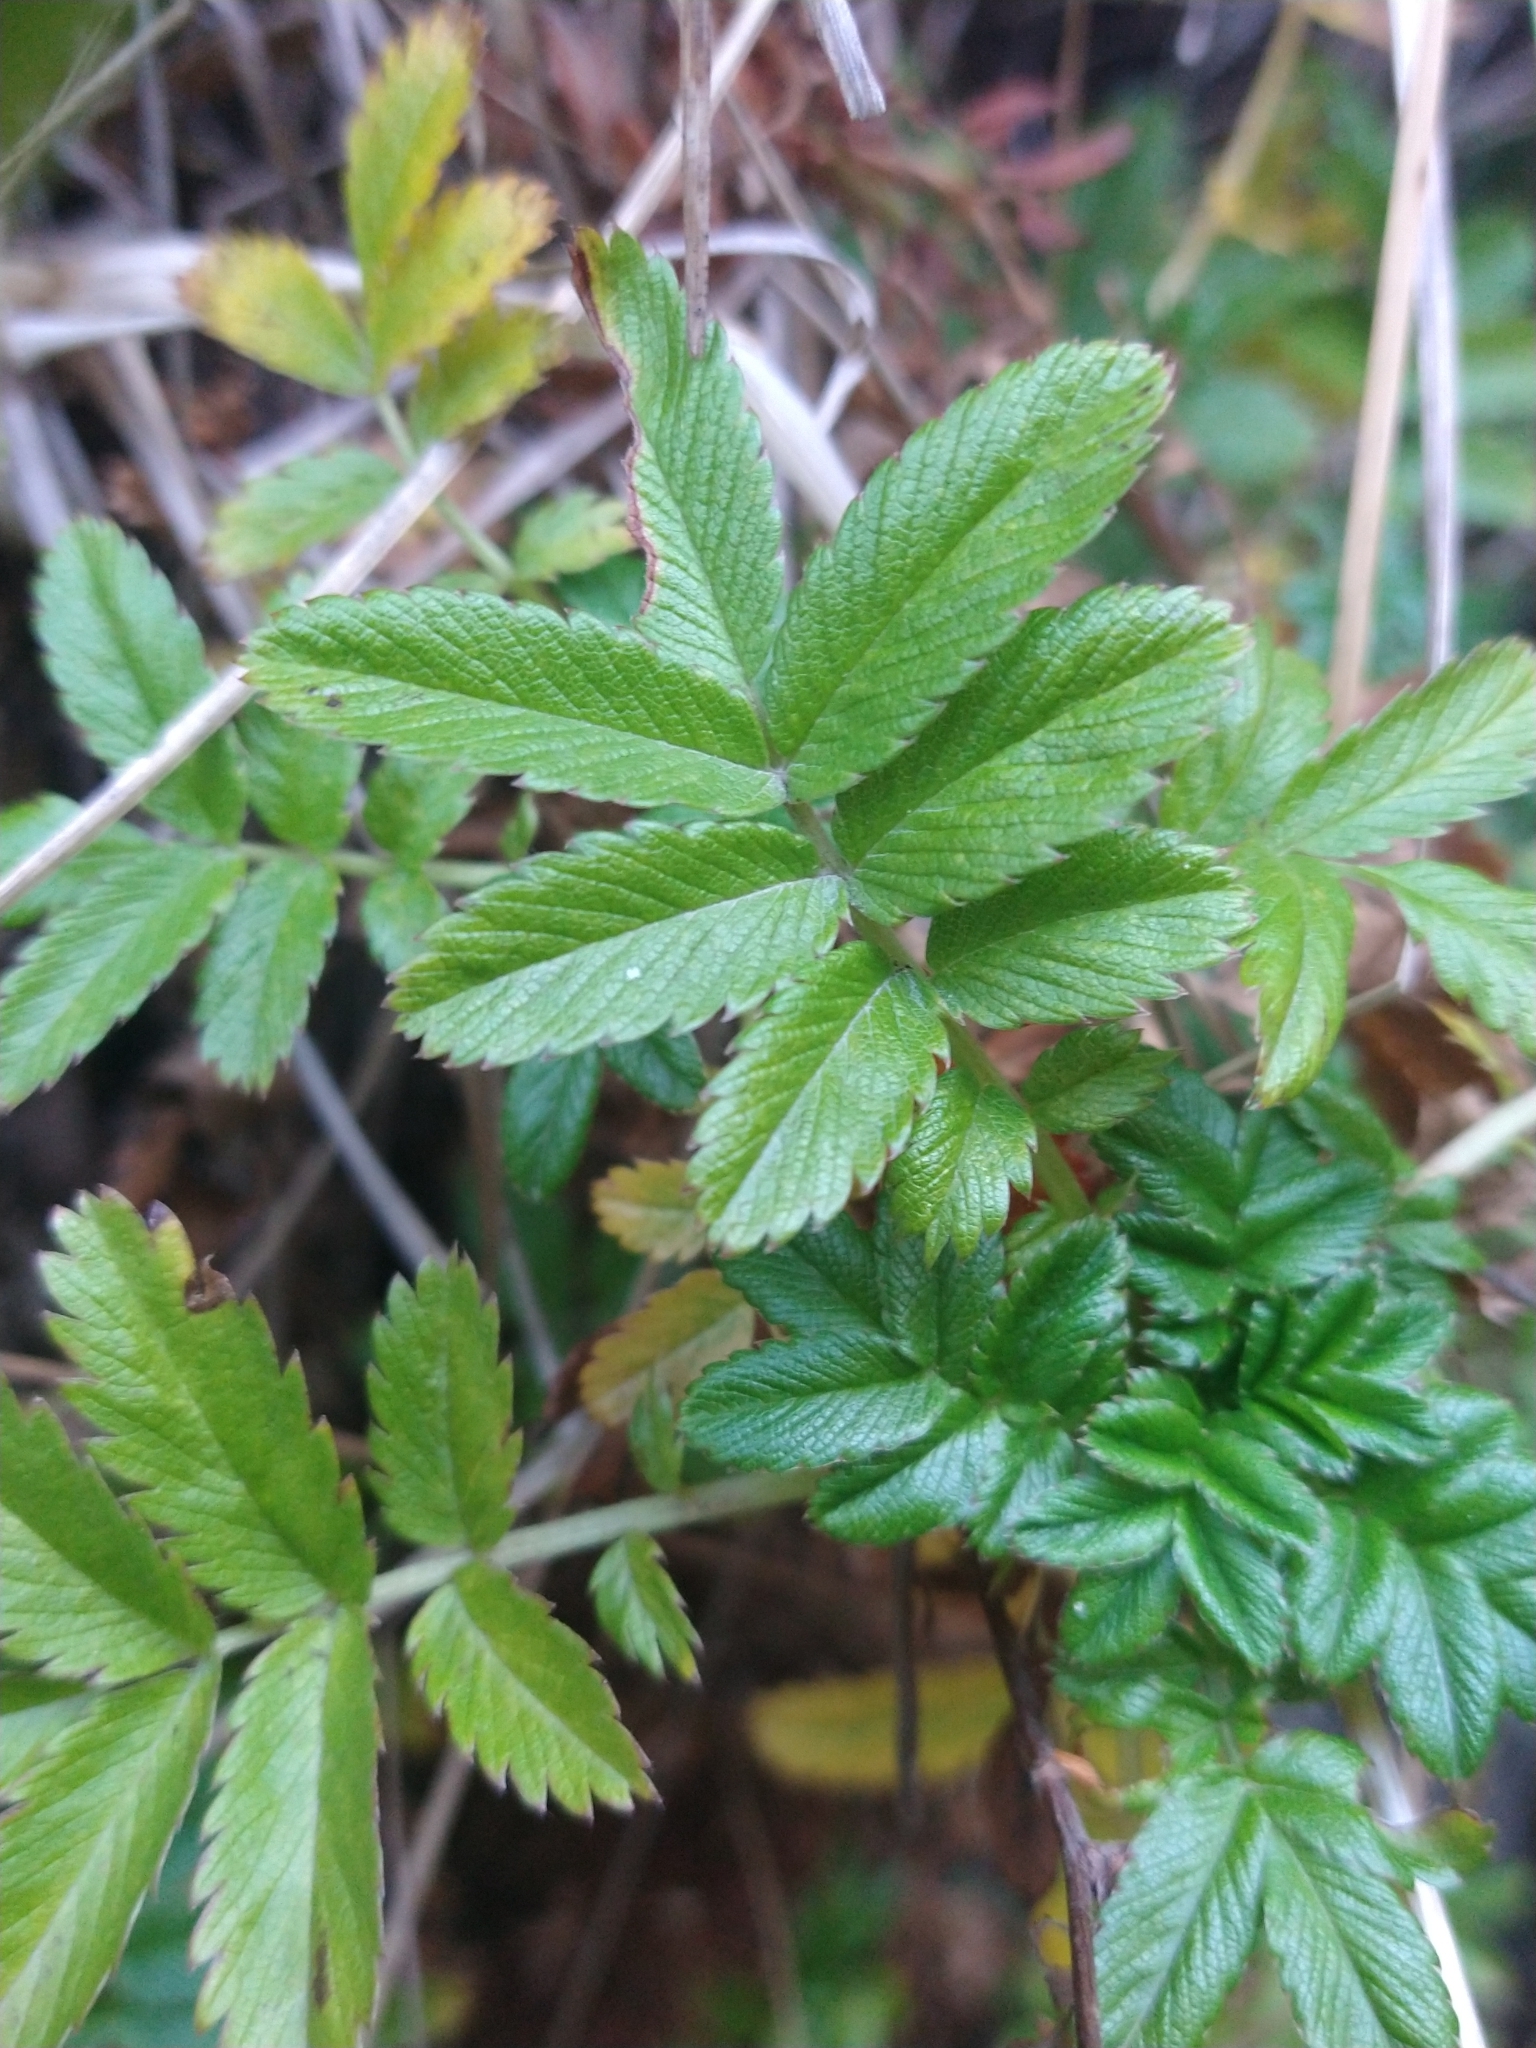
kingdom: Plantae
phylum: Tracheophyta
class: Magnoliopsida
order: Rosales
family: Rosaceae
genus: Acaena
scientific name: Acaena ovalifolia
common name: Two-spined acaena
